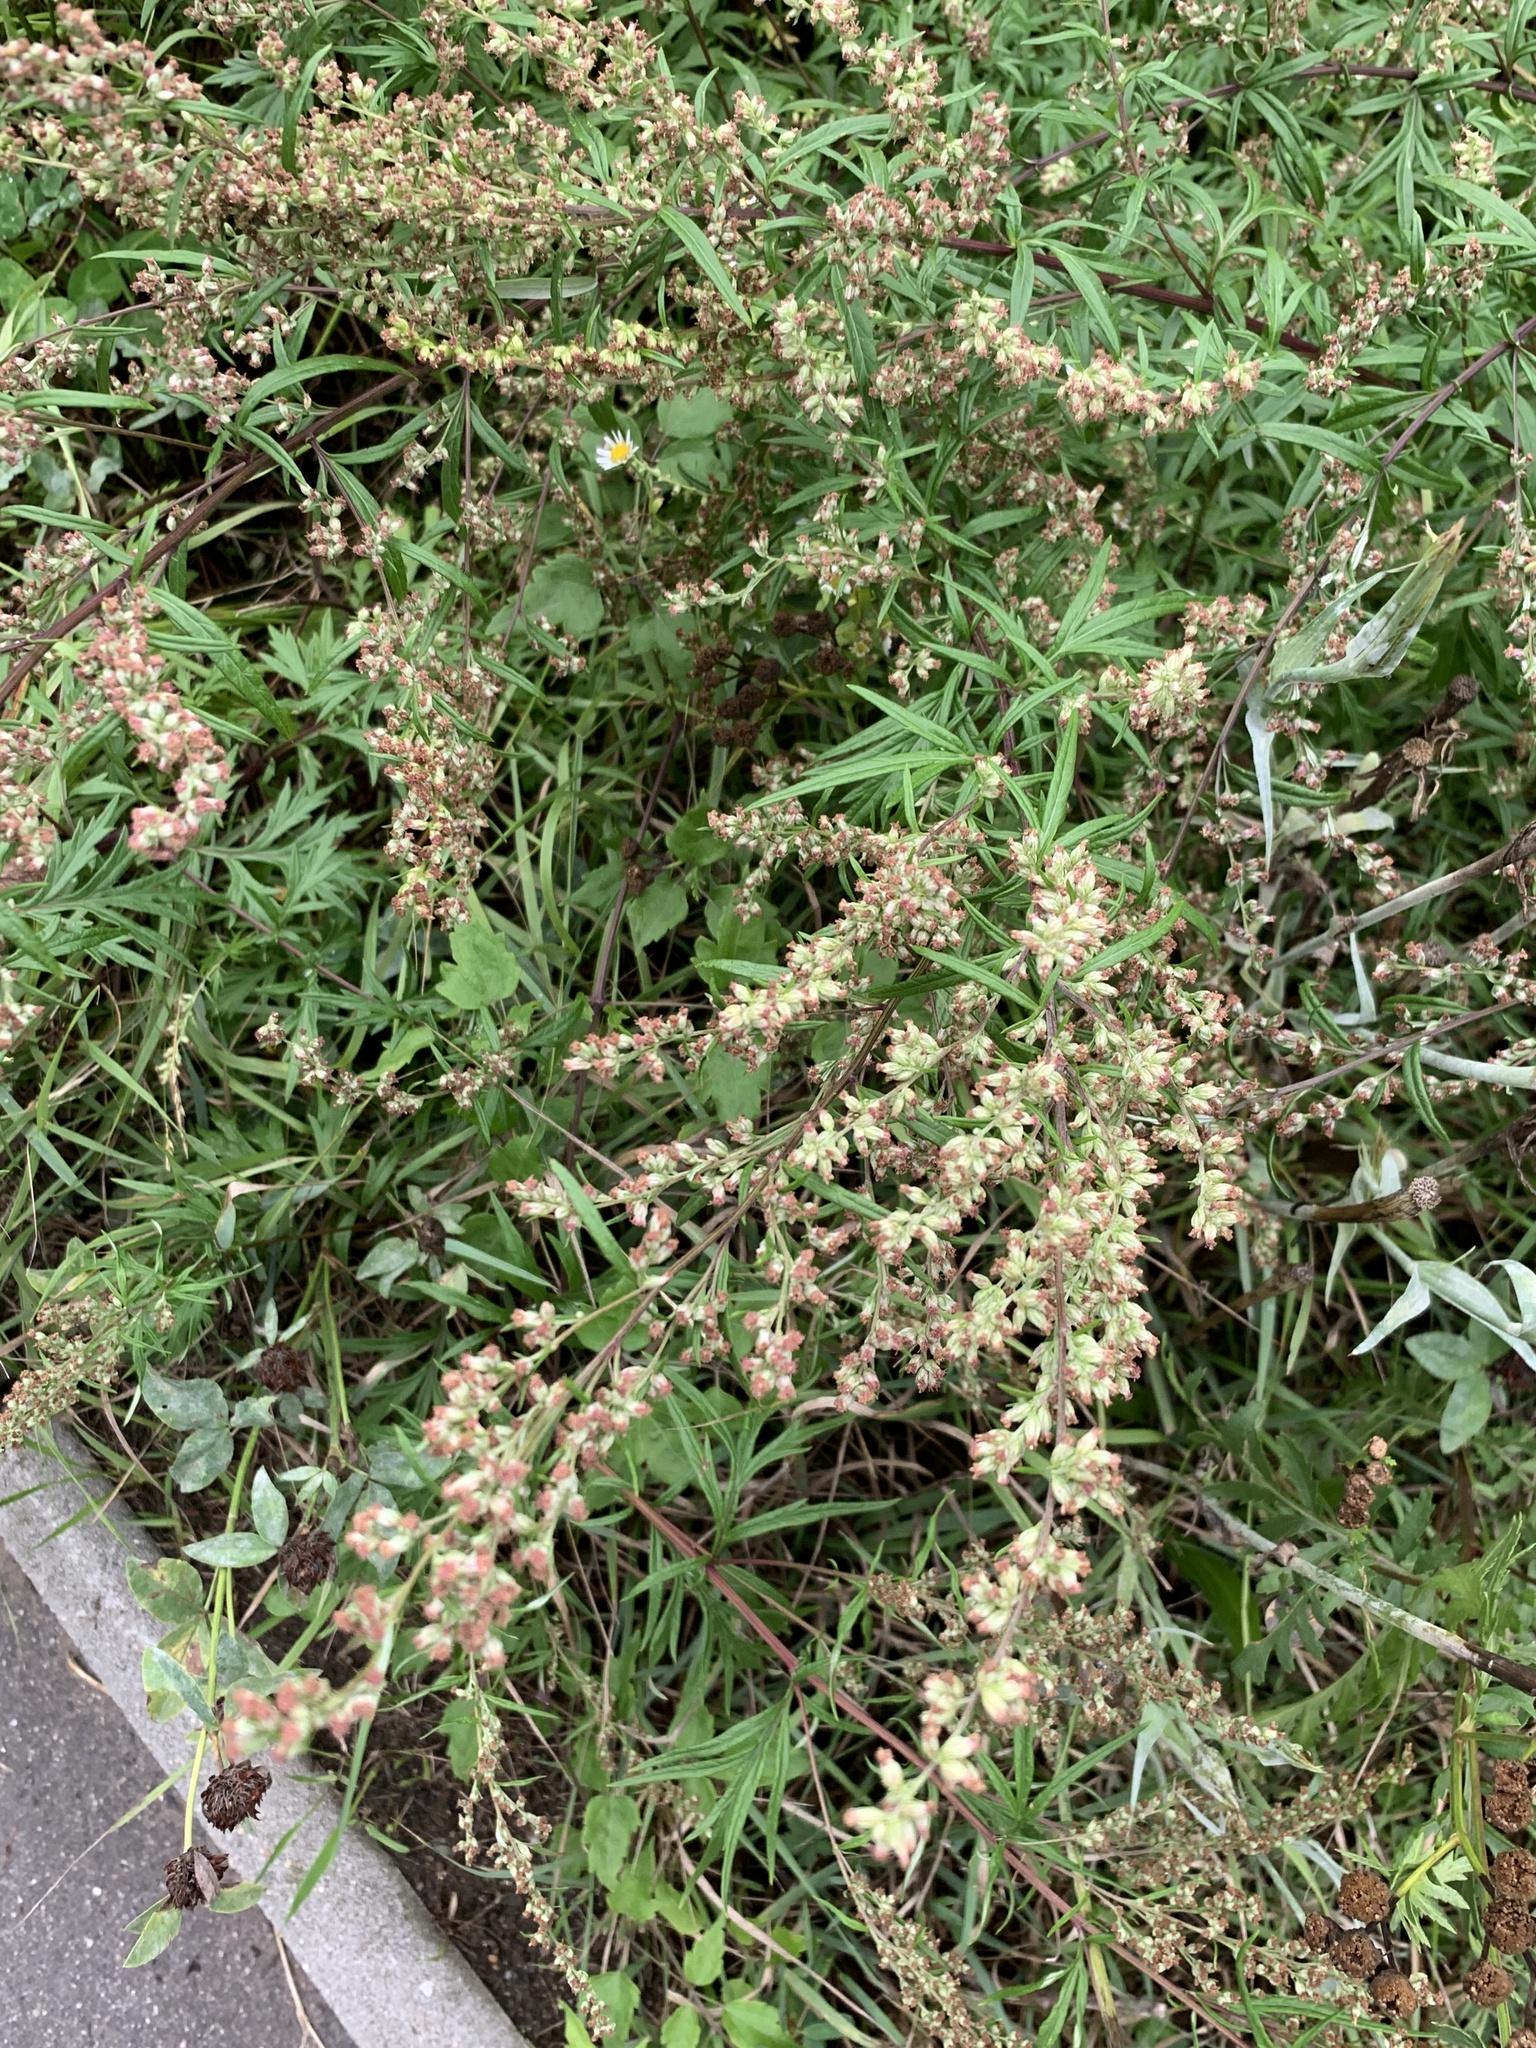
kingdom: Plantae
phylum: Tracheophyta
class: Magnoliopsida
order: Asterales
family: Asteraceae
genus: Artemisia
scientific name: Artemisia vulgaris
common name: Mugwort
